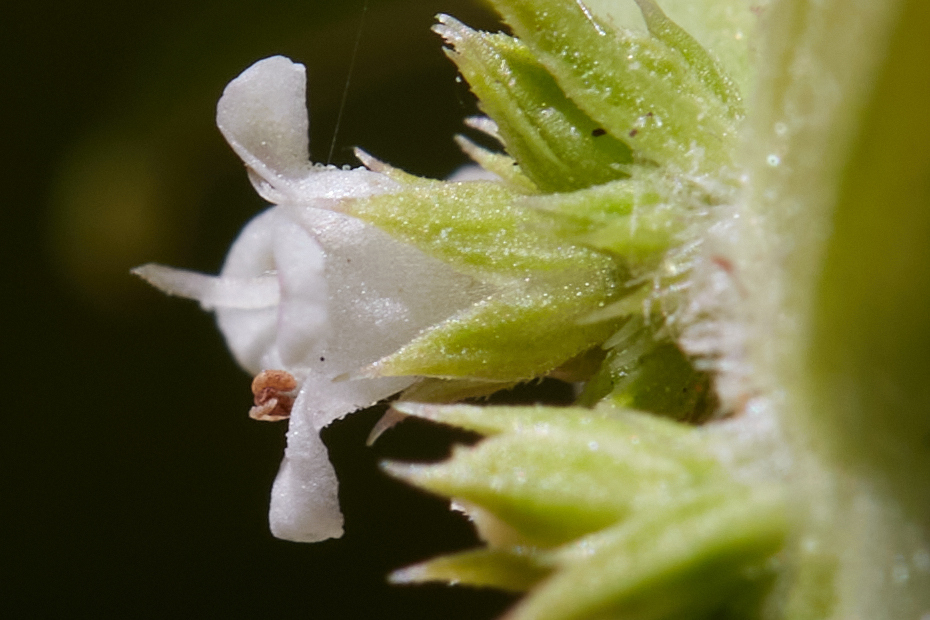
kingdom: Plantae
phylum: Tracheophyta
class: Magnoliopsida
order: Lamiales
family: Lamiaceae
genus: Lycopus
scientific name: Lycopus americanus
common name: American bugleweed
